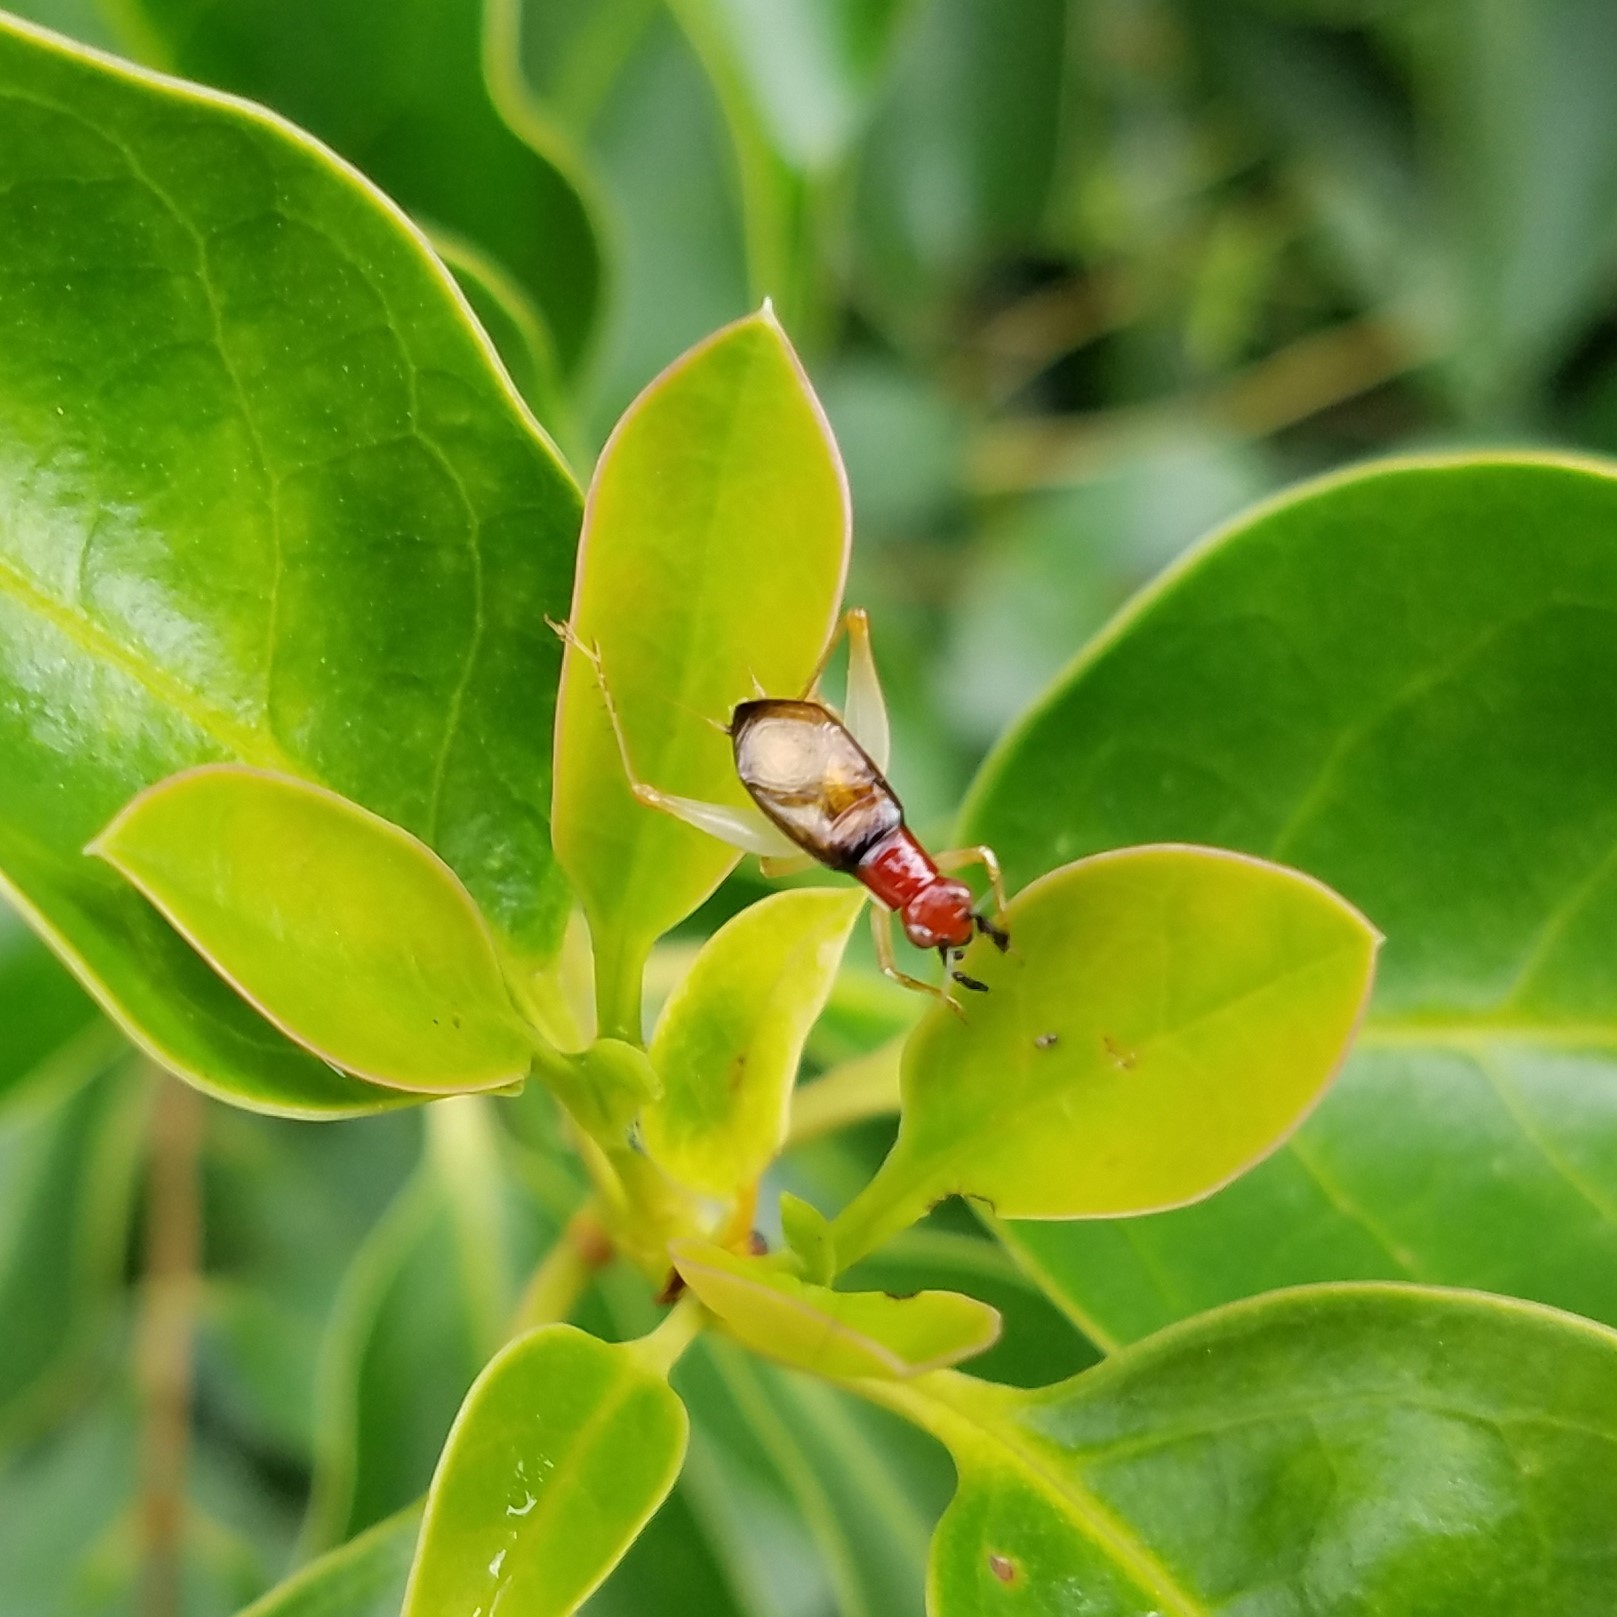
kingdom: Animalia
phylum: Arthropoda
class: Insecta
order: Orthoptera
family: Trigonidiidae
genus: Phyllopalpus
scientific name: Phyllopalpus pulchellus
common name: Handsome trig
